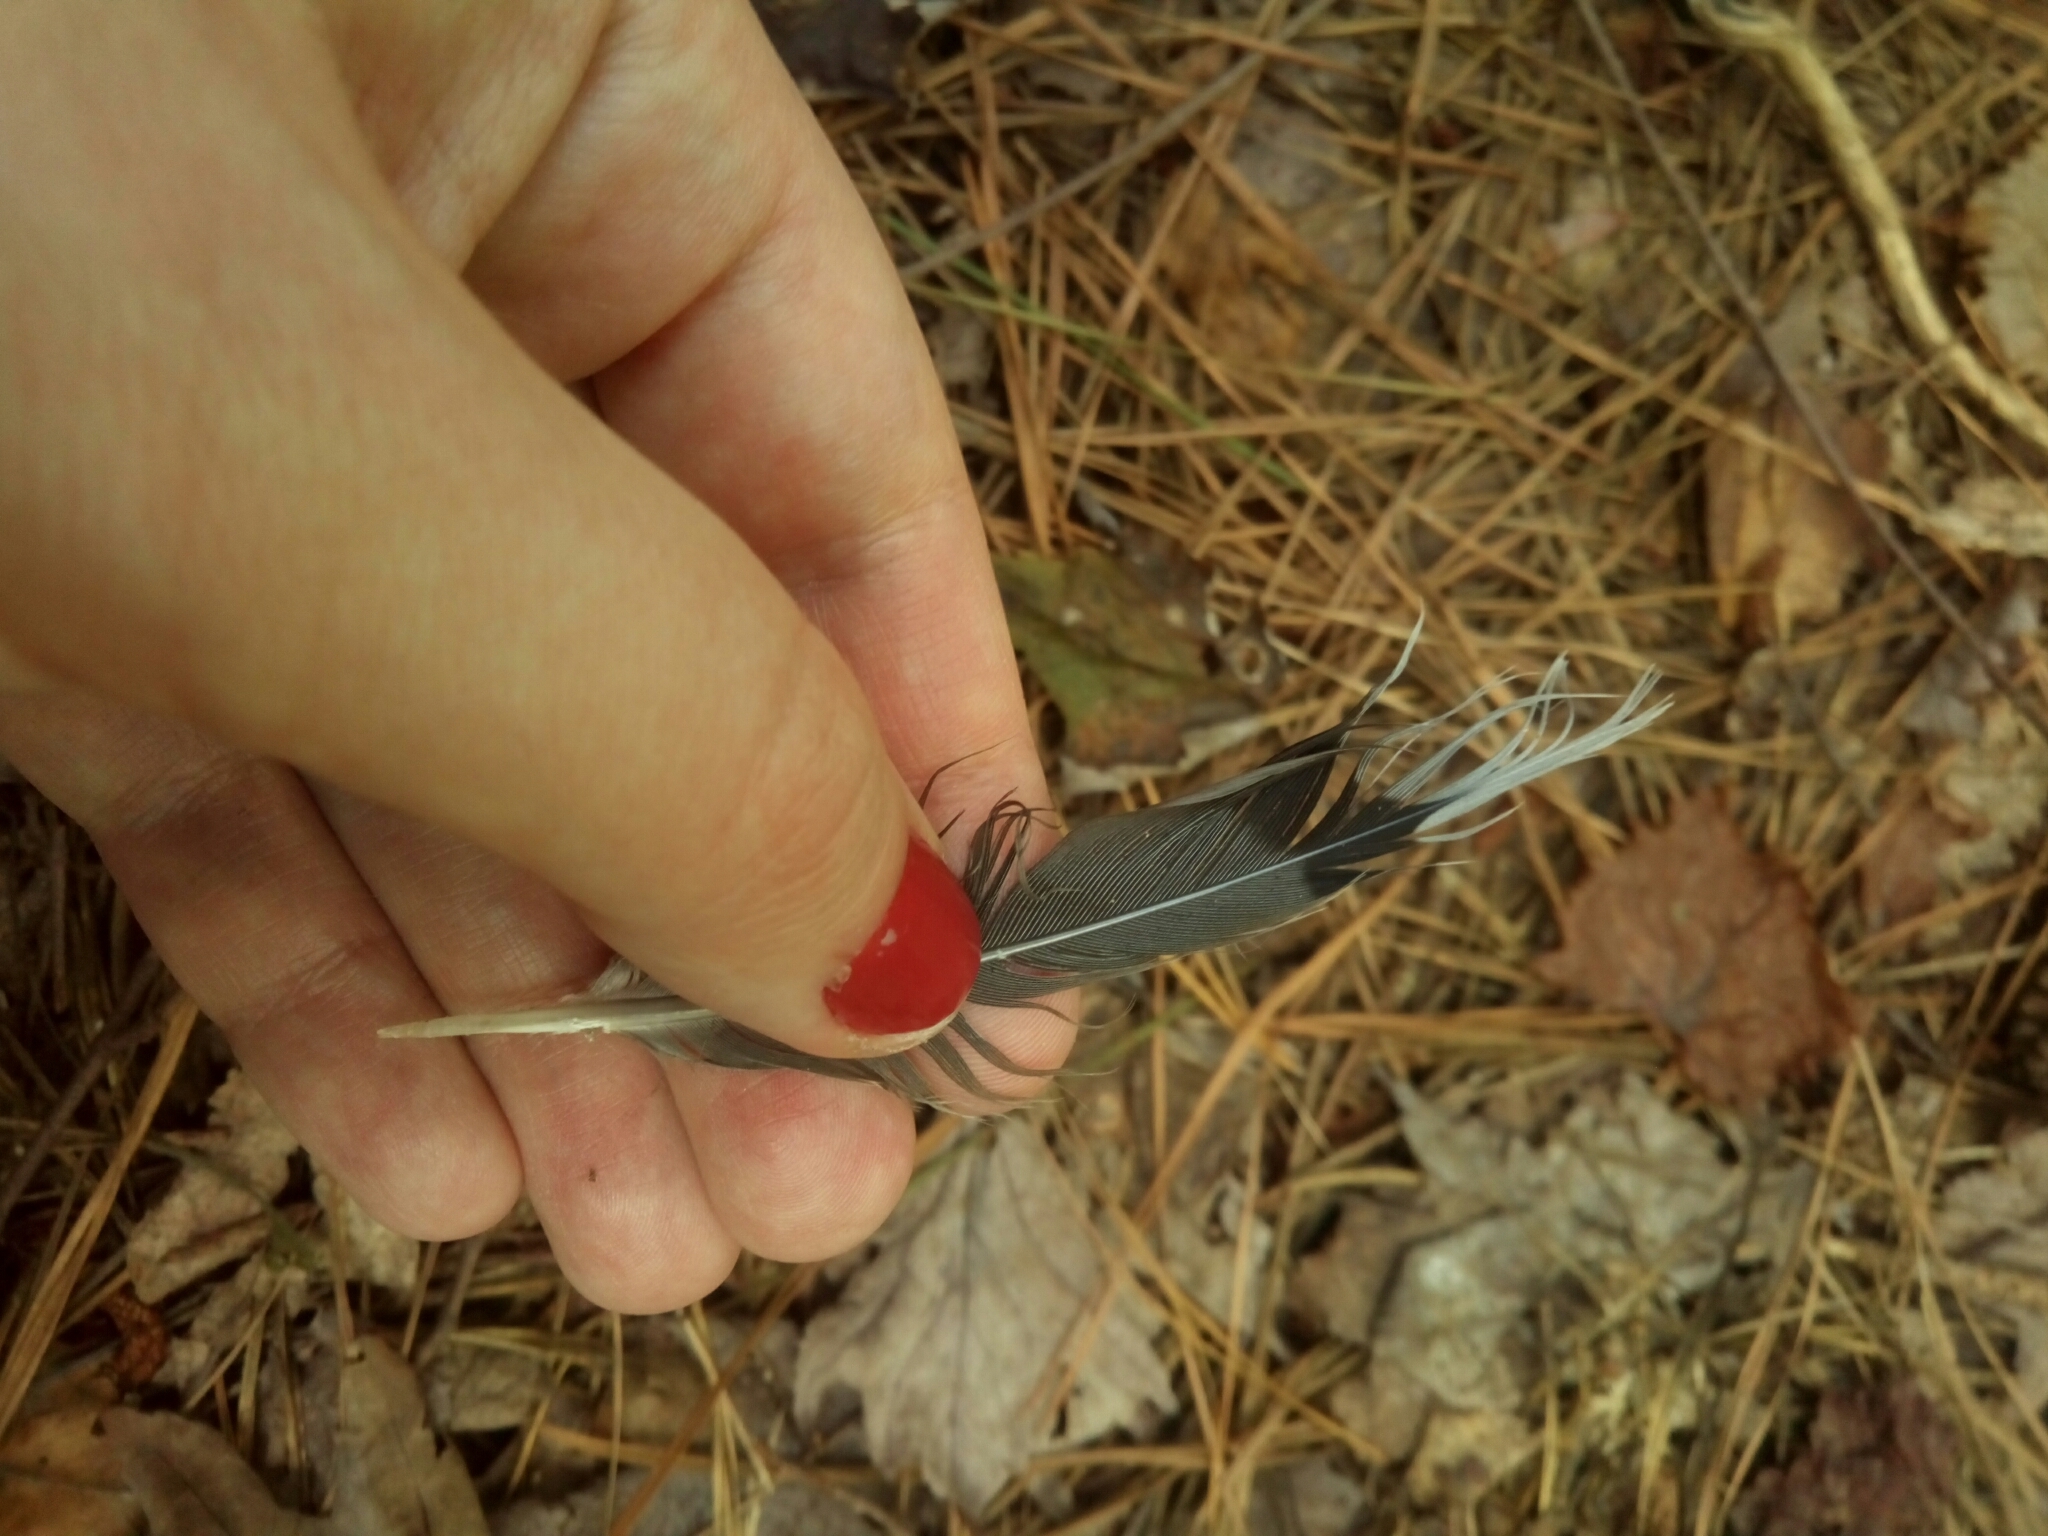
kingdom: Animalia
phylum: Chordata
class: Aves
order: Columbiformes
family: Columbidae
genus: Zenaida
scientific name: Zenaida macroura
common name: Mourning dove
